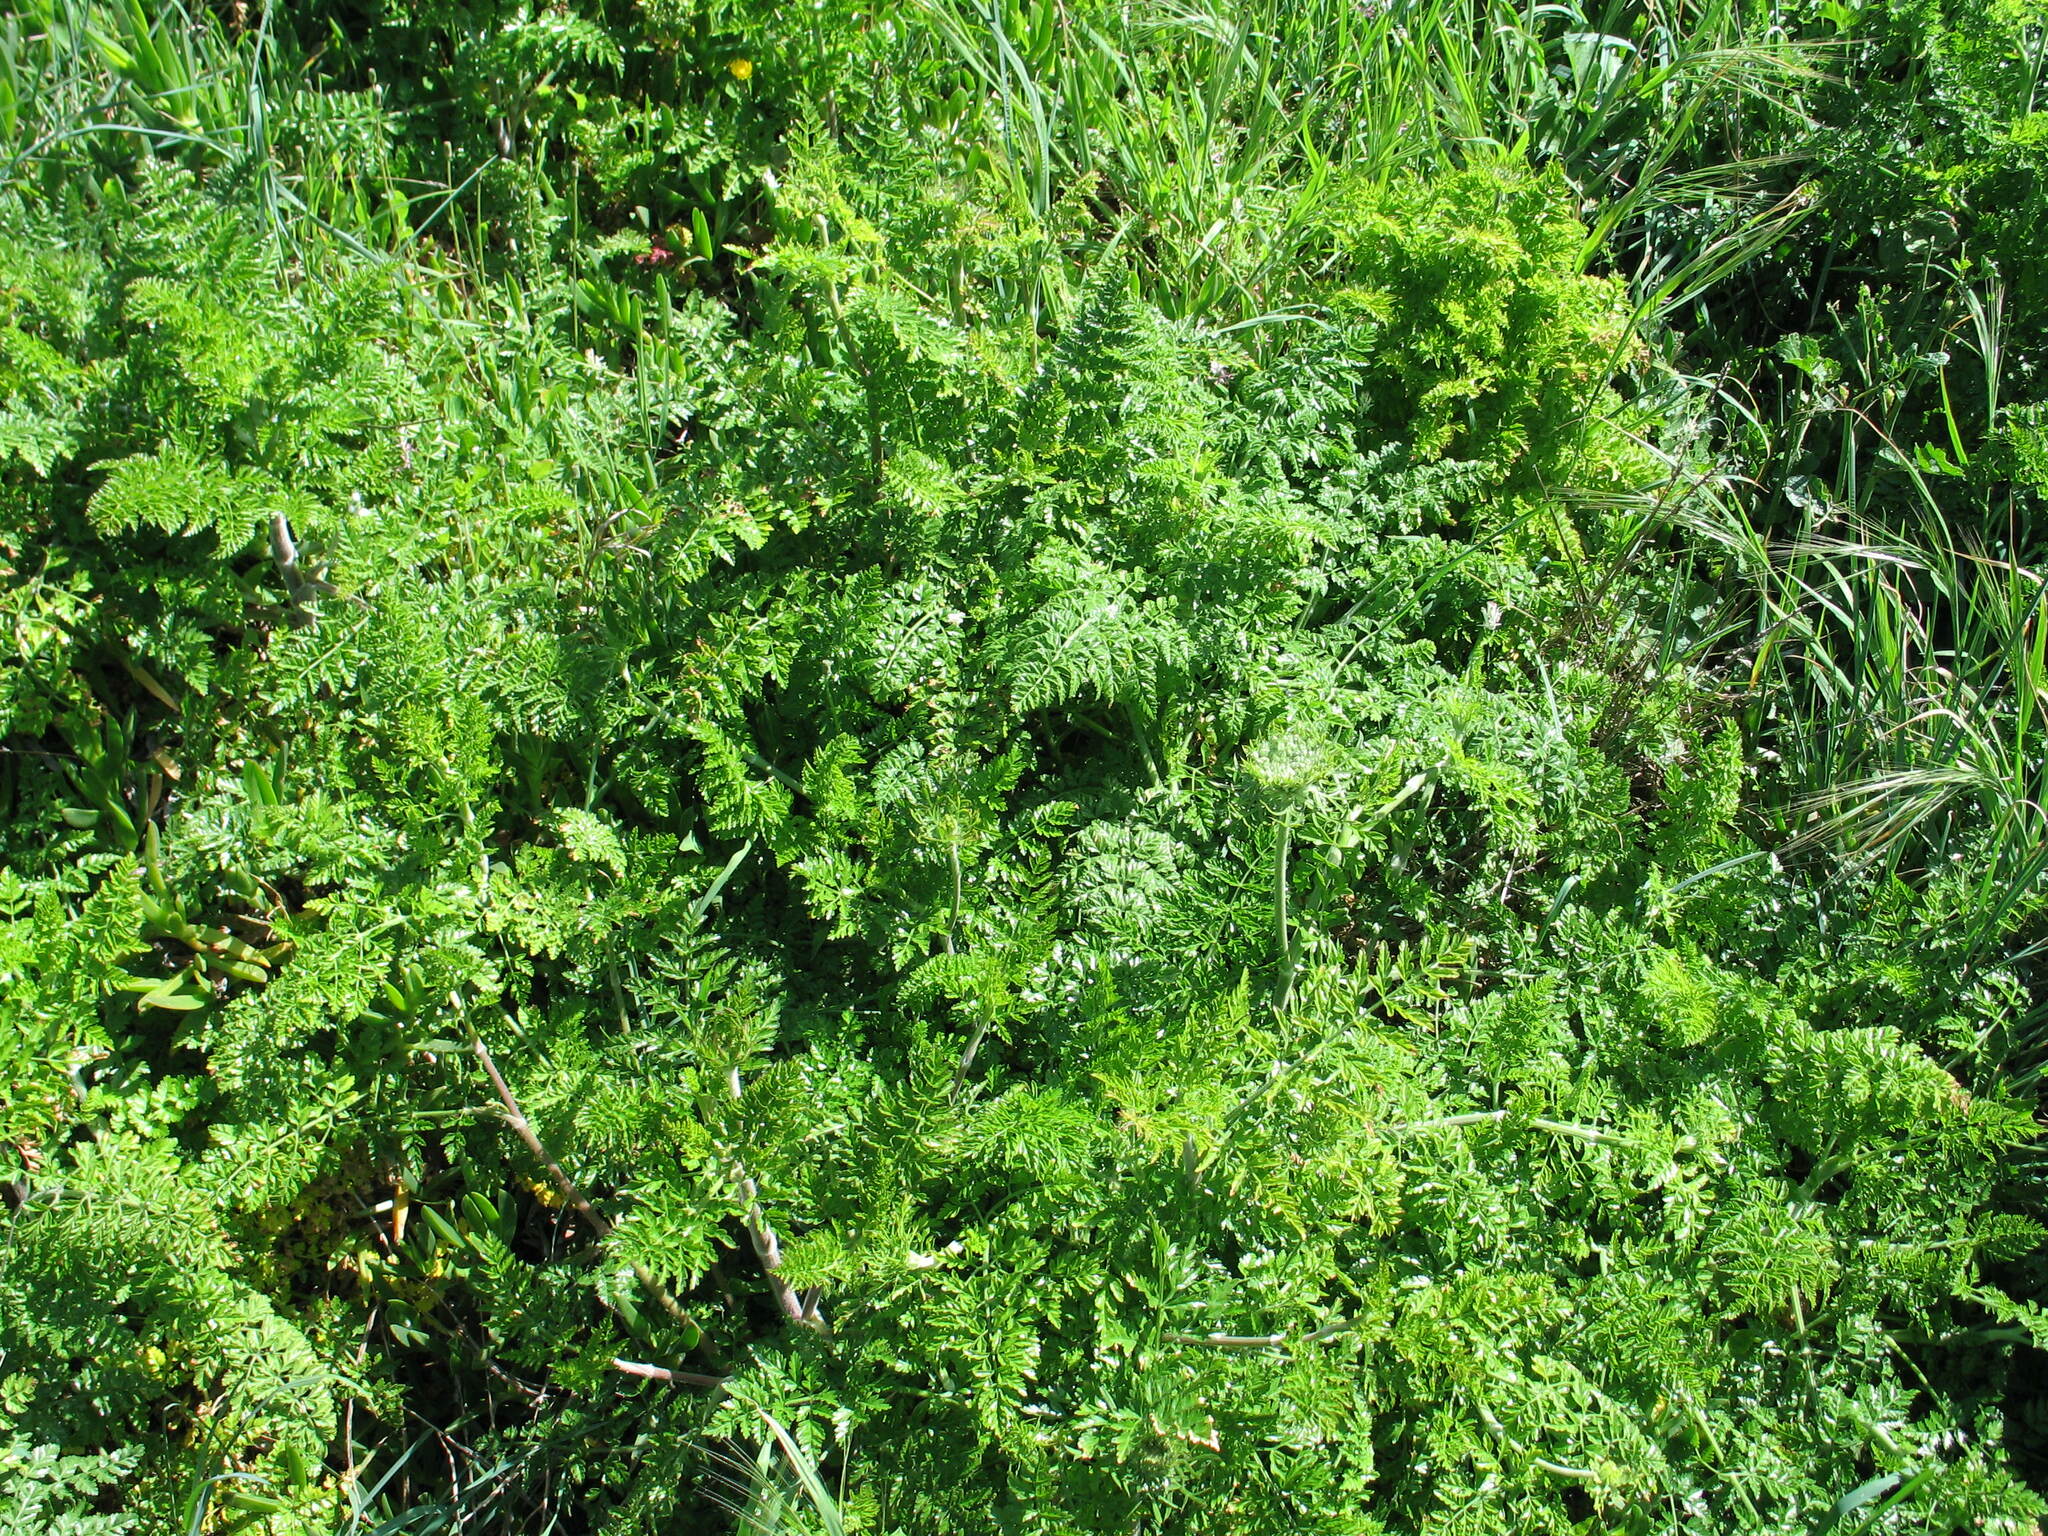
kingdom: Plantae
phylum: Tracheophyta
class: Magnoliopsida
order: Apiales
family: Apiaceae
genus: Daucus
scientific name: Daucus carota
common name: Wild carrot
